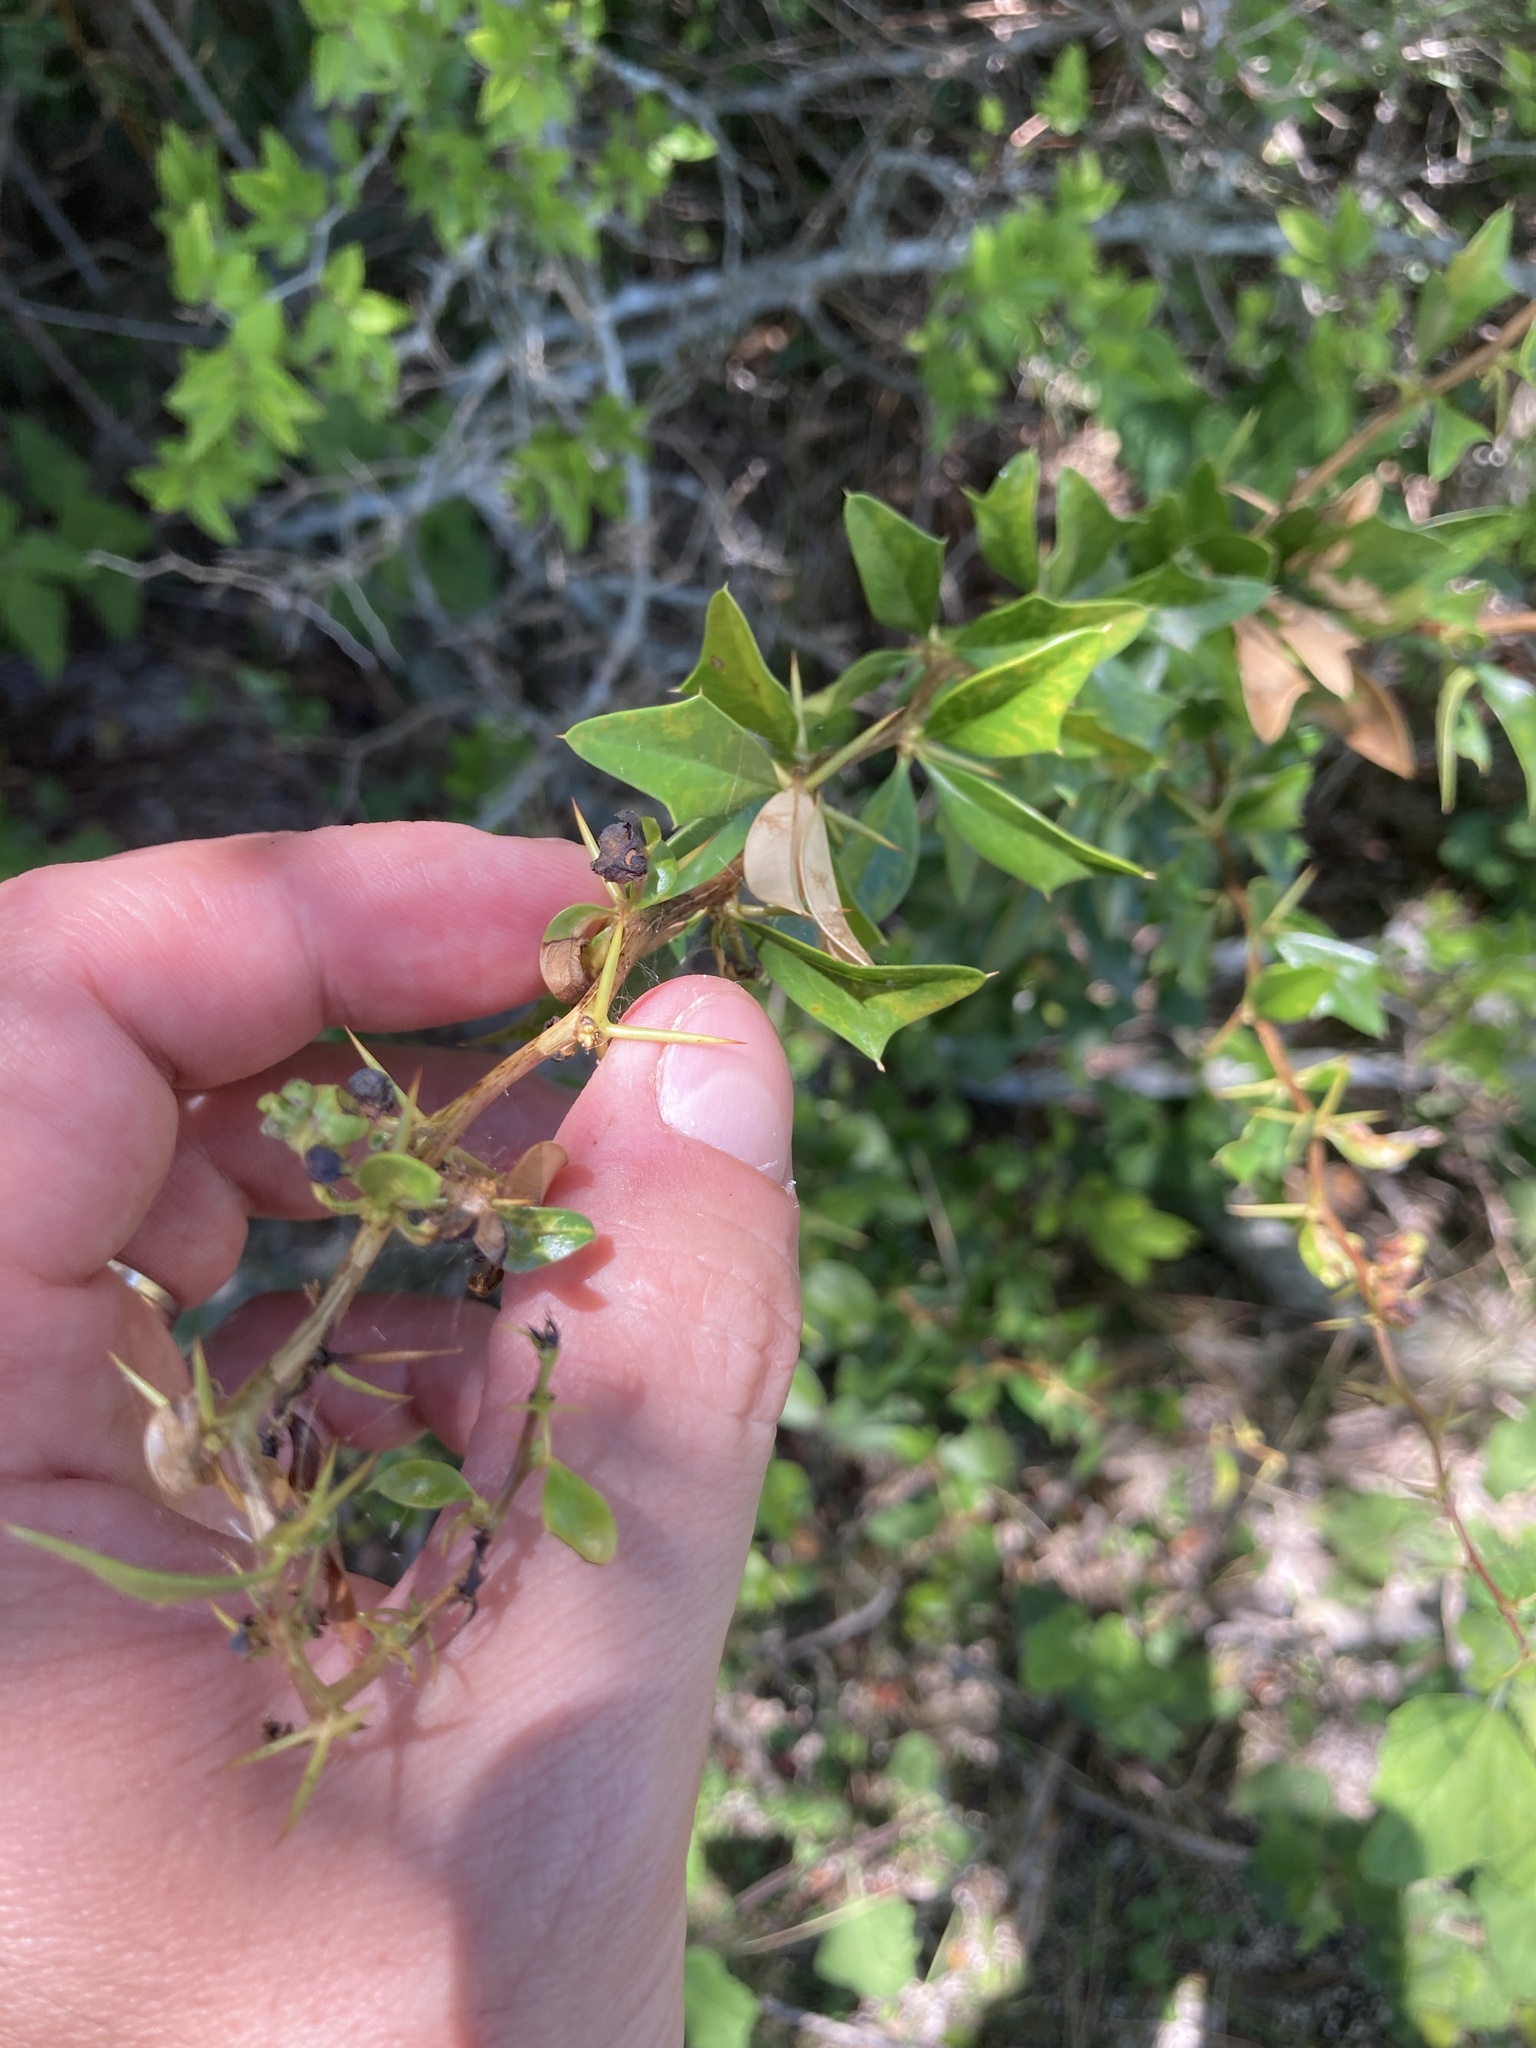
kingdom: Plantae
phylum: Tracheophyta
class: Magnoliopsida
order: Ranunculales
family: Berberidaceae
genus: Berberis
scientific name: Berberis ruscifolia
